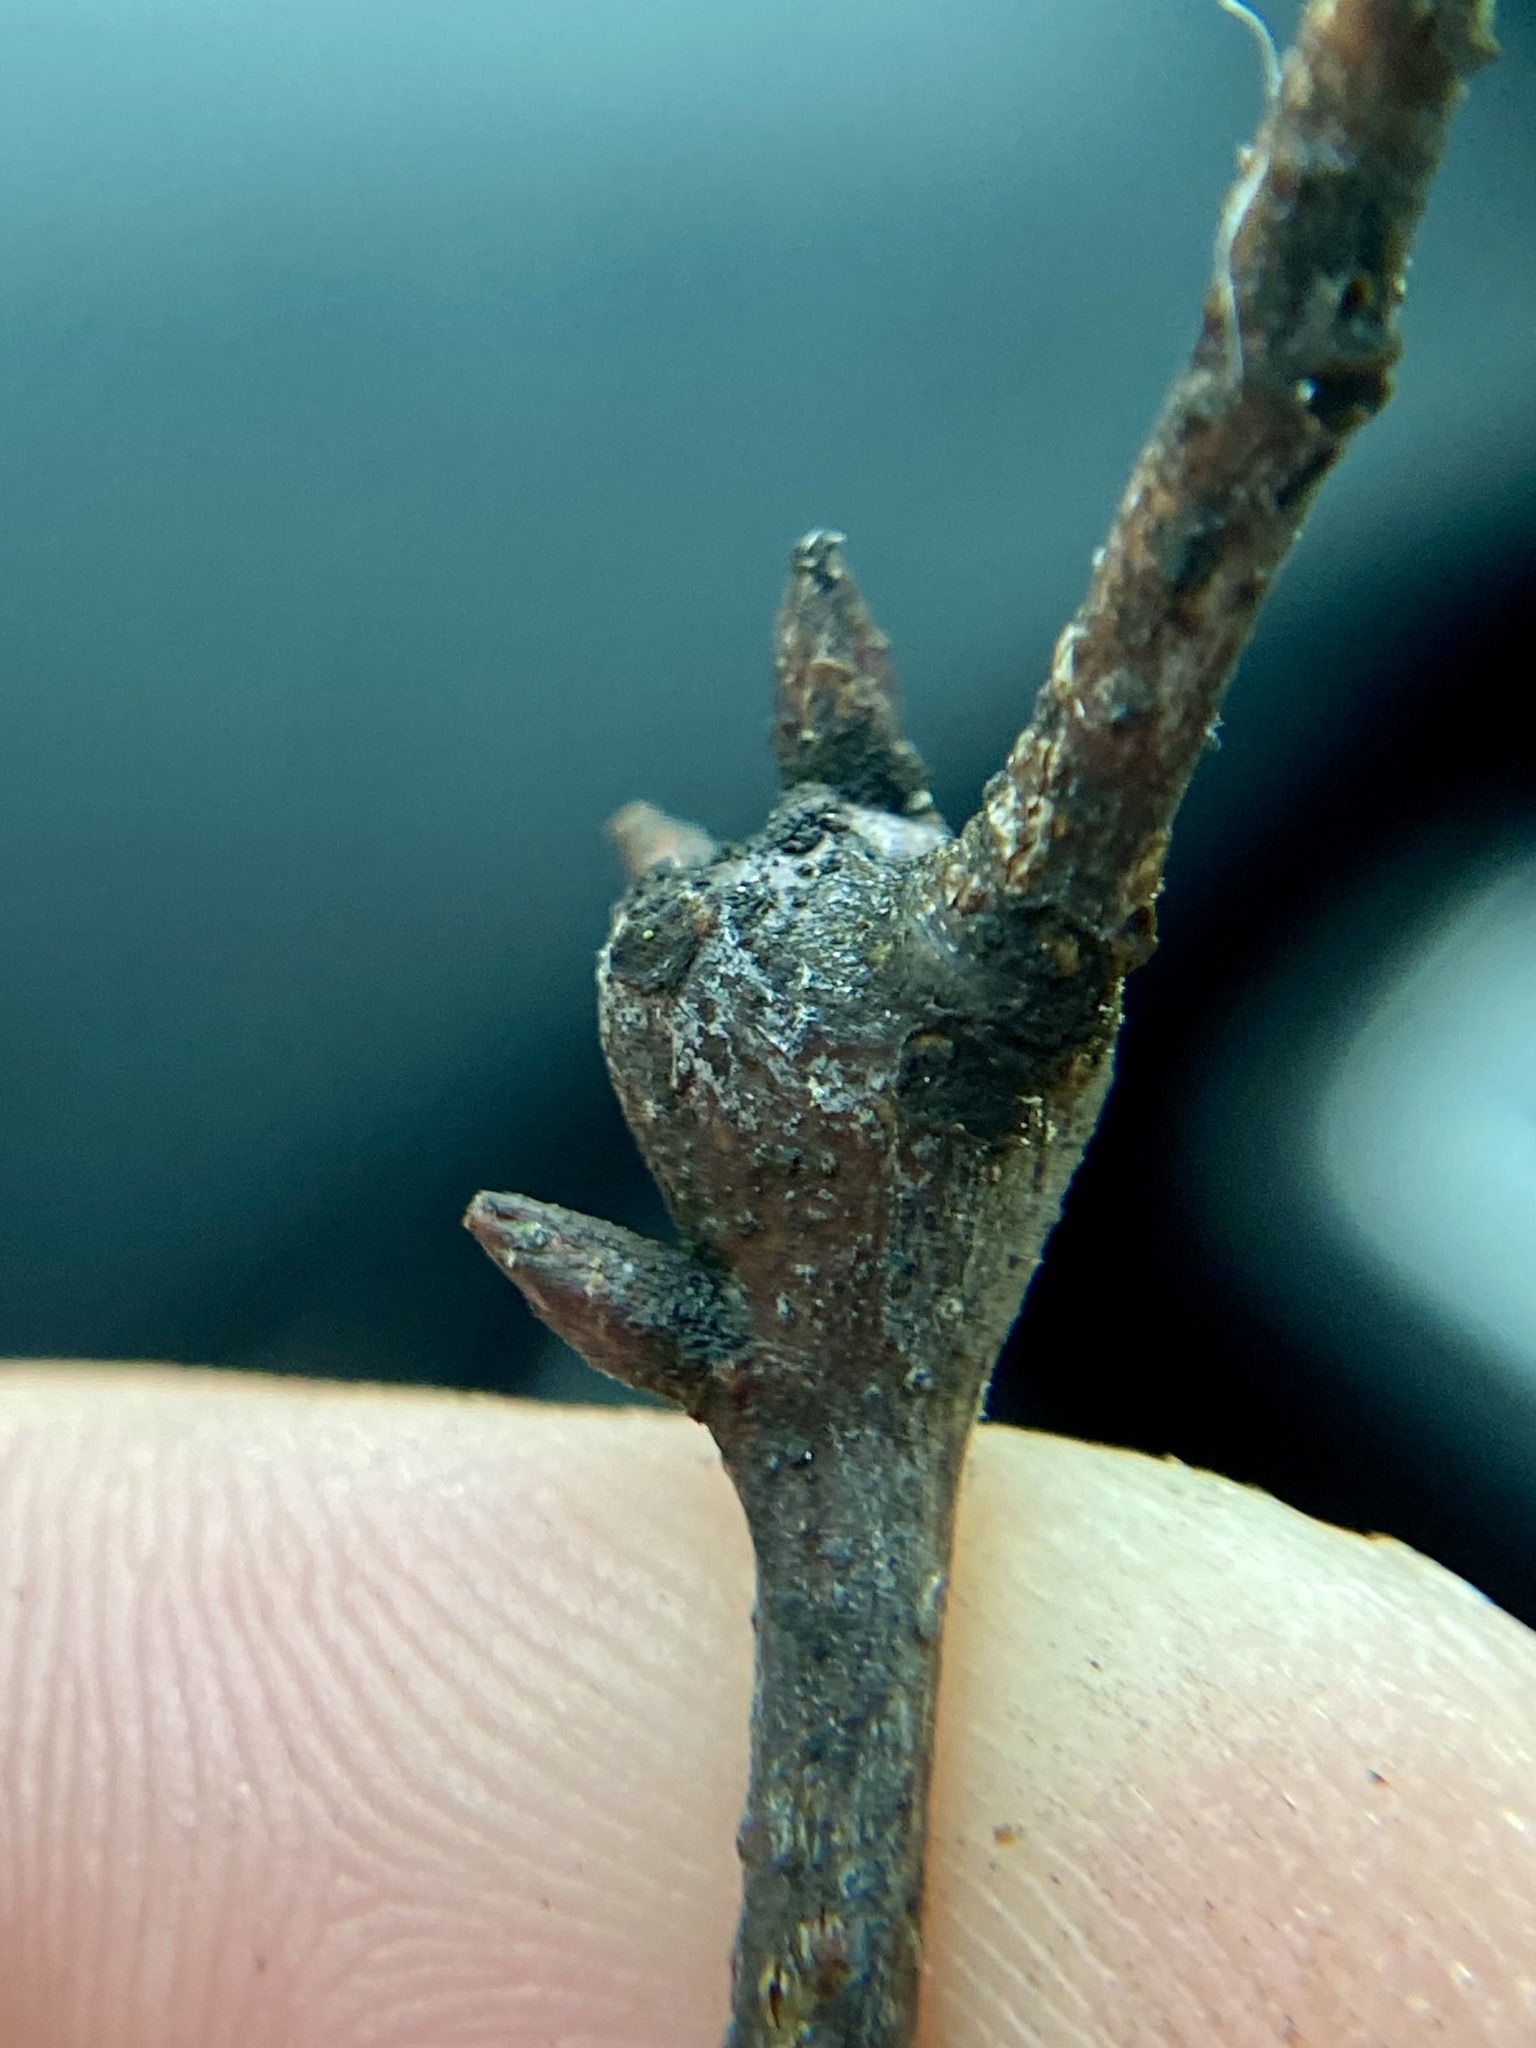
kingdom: Animalia
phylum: Arthropoda
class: Insecta
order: Hymenoptera
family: Cynipidae
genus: Zapatella
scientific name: Zapatella quercusphellos
